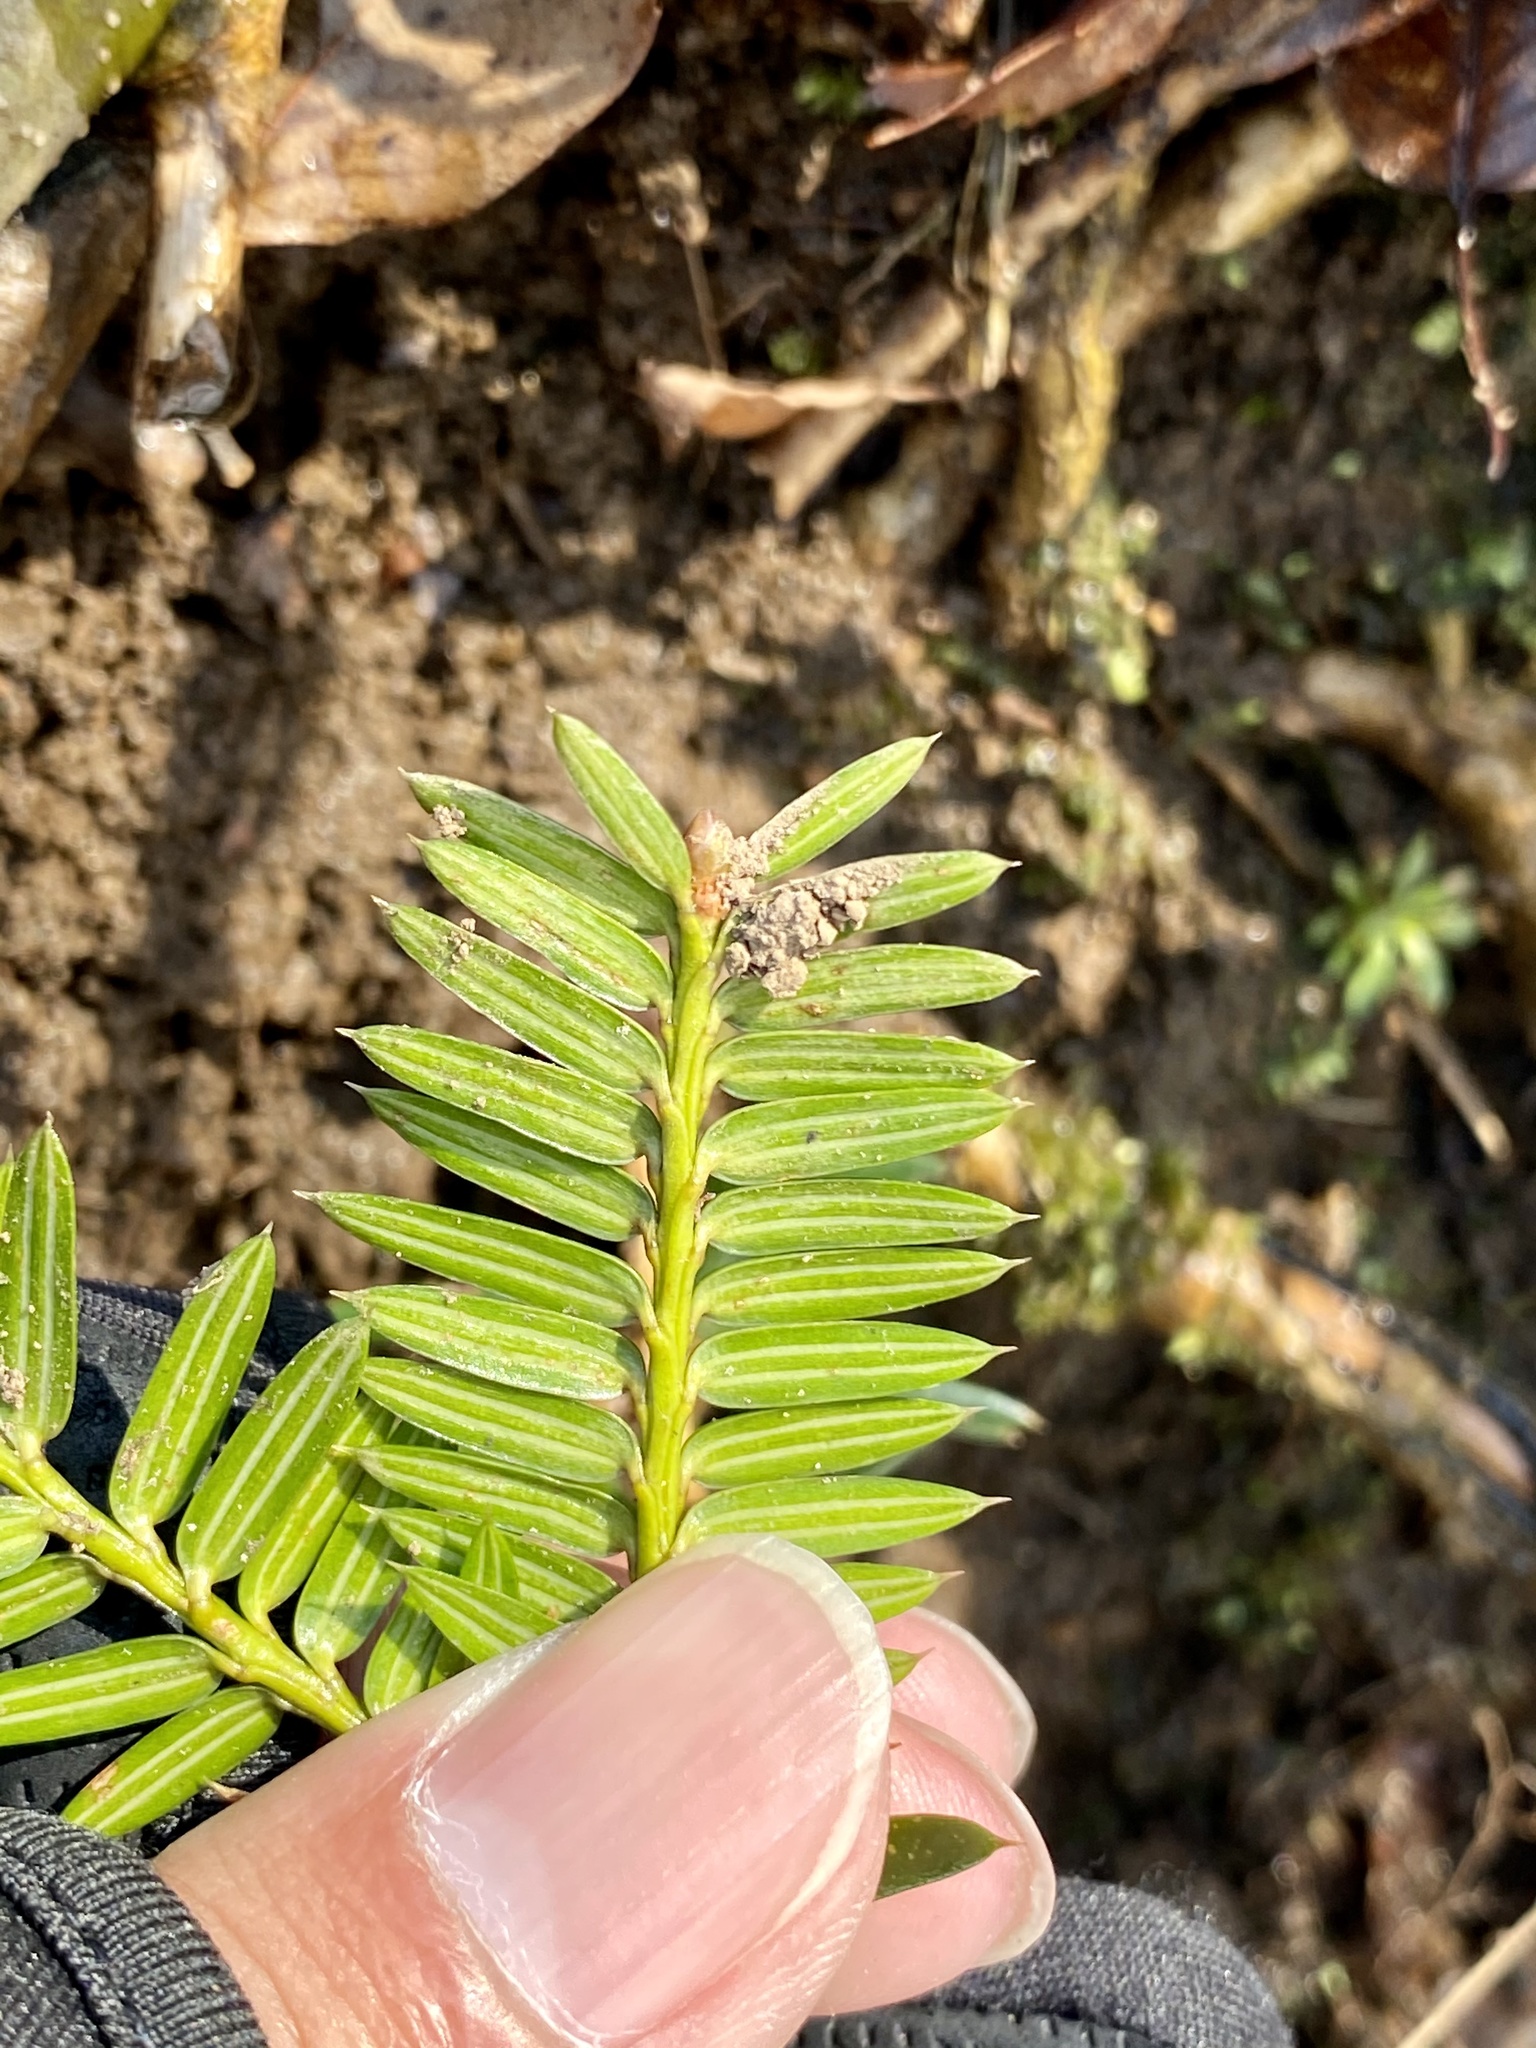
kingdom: Plantae
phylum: Tracheophyta
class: Pinopsida
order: Pinales
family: Taxaceae
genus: Torreya
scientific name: Torreya nucifera
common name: Japanese nutmeg tree
